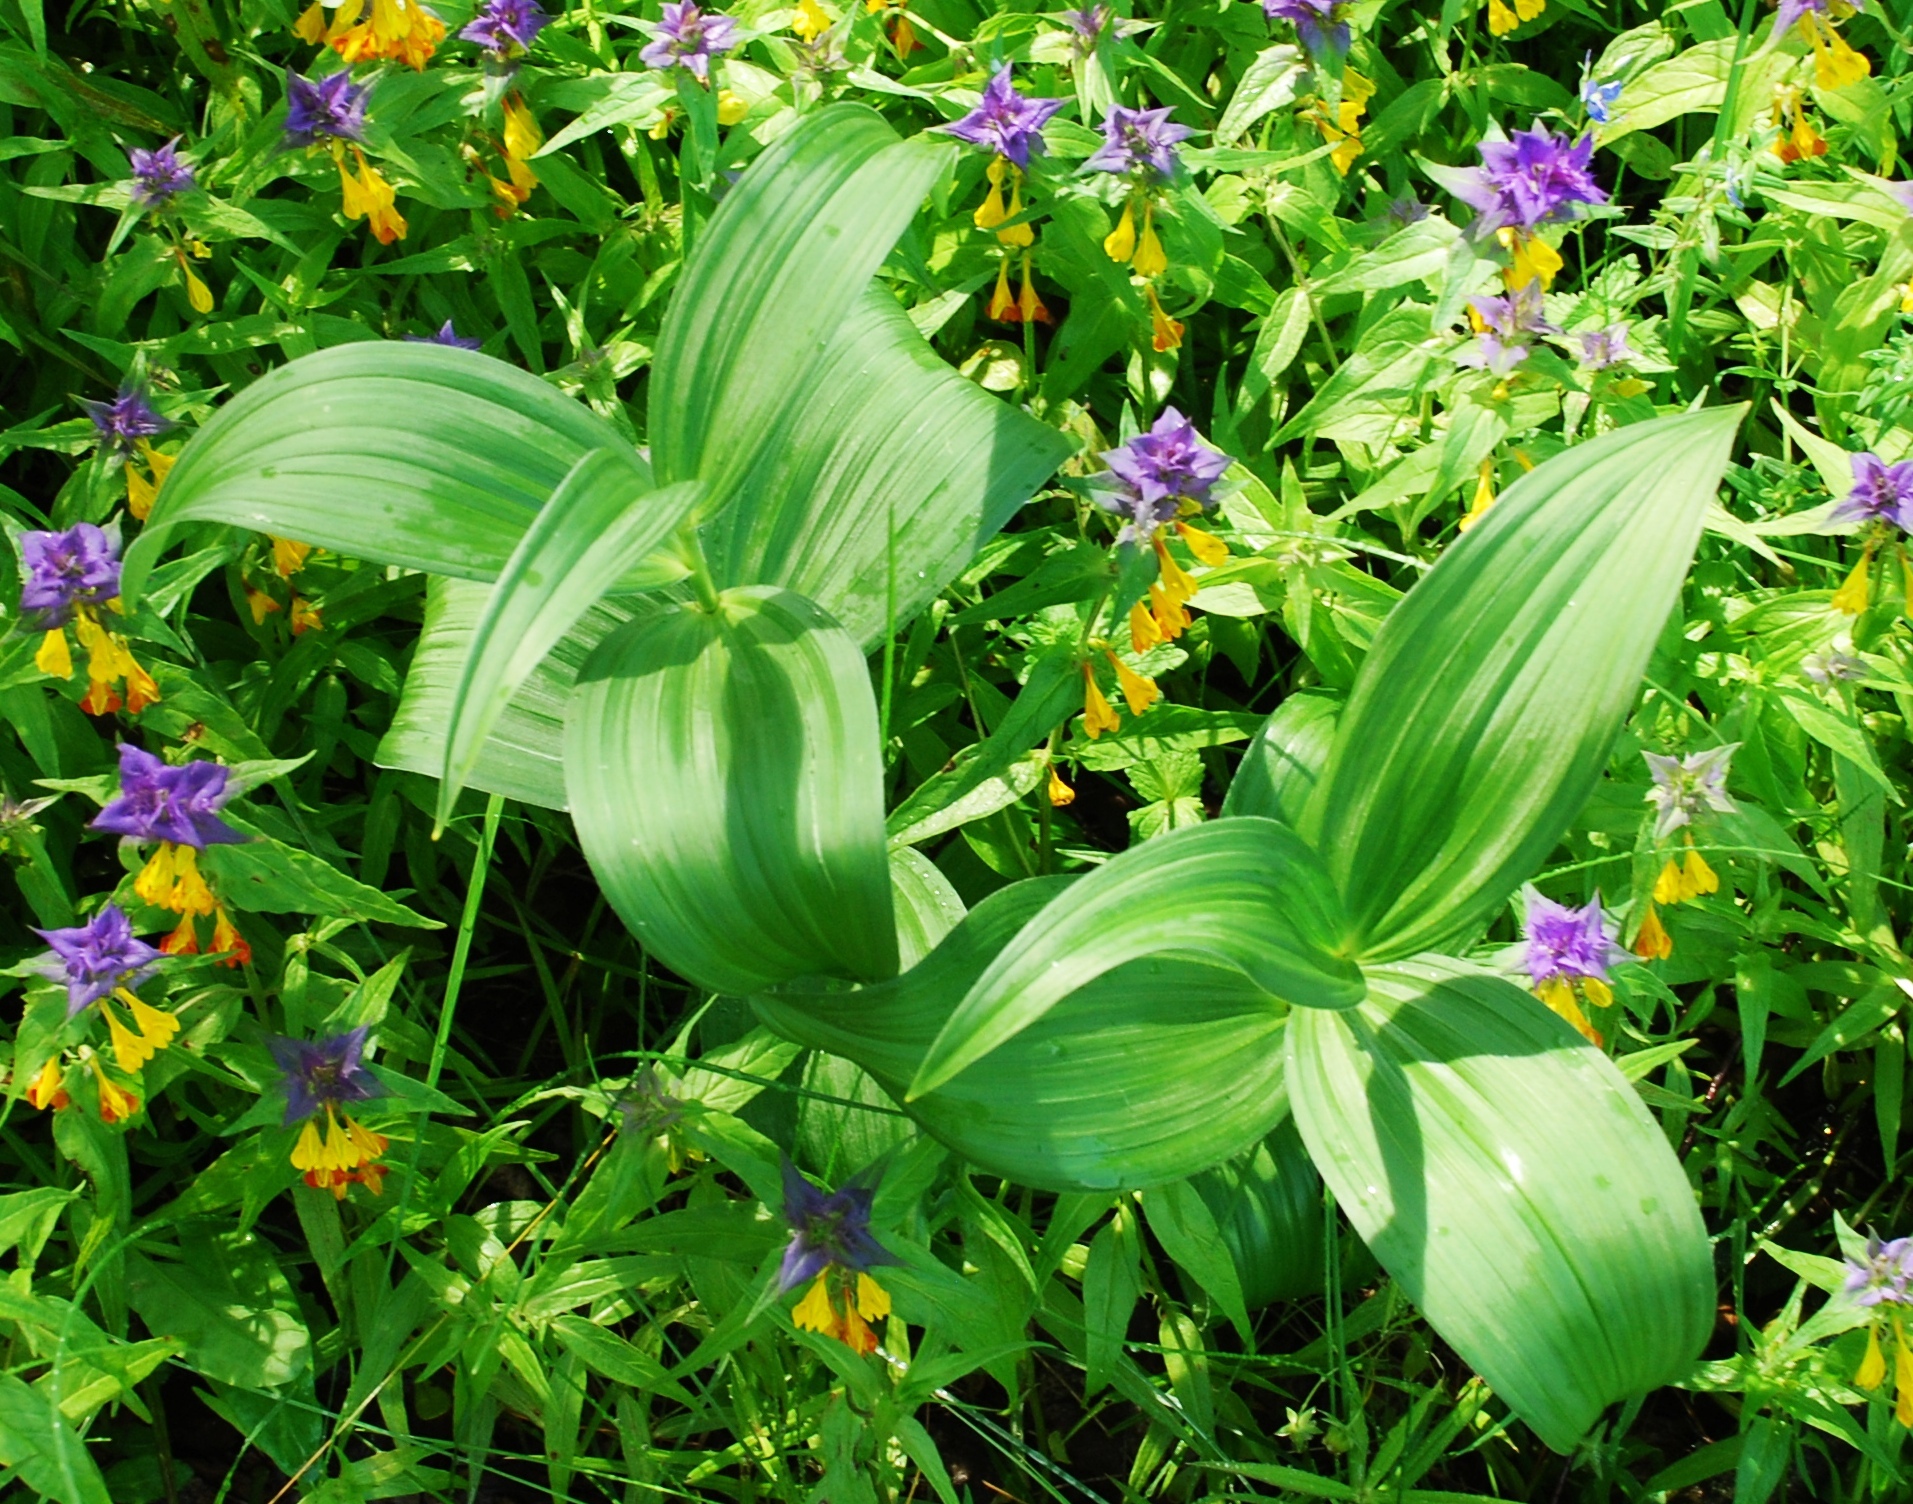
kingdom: Plantae
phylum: Tracheophyta
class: Liliopsida
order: Liliales
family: Melanthiaceae
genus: Veratrum
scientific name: Veratrum lobelianum
